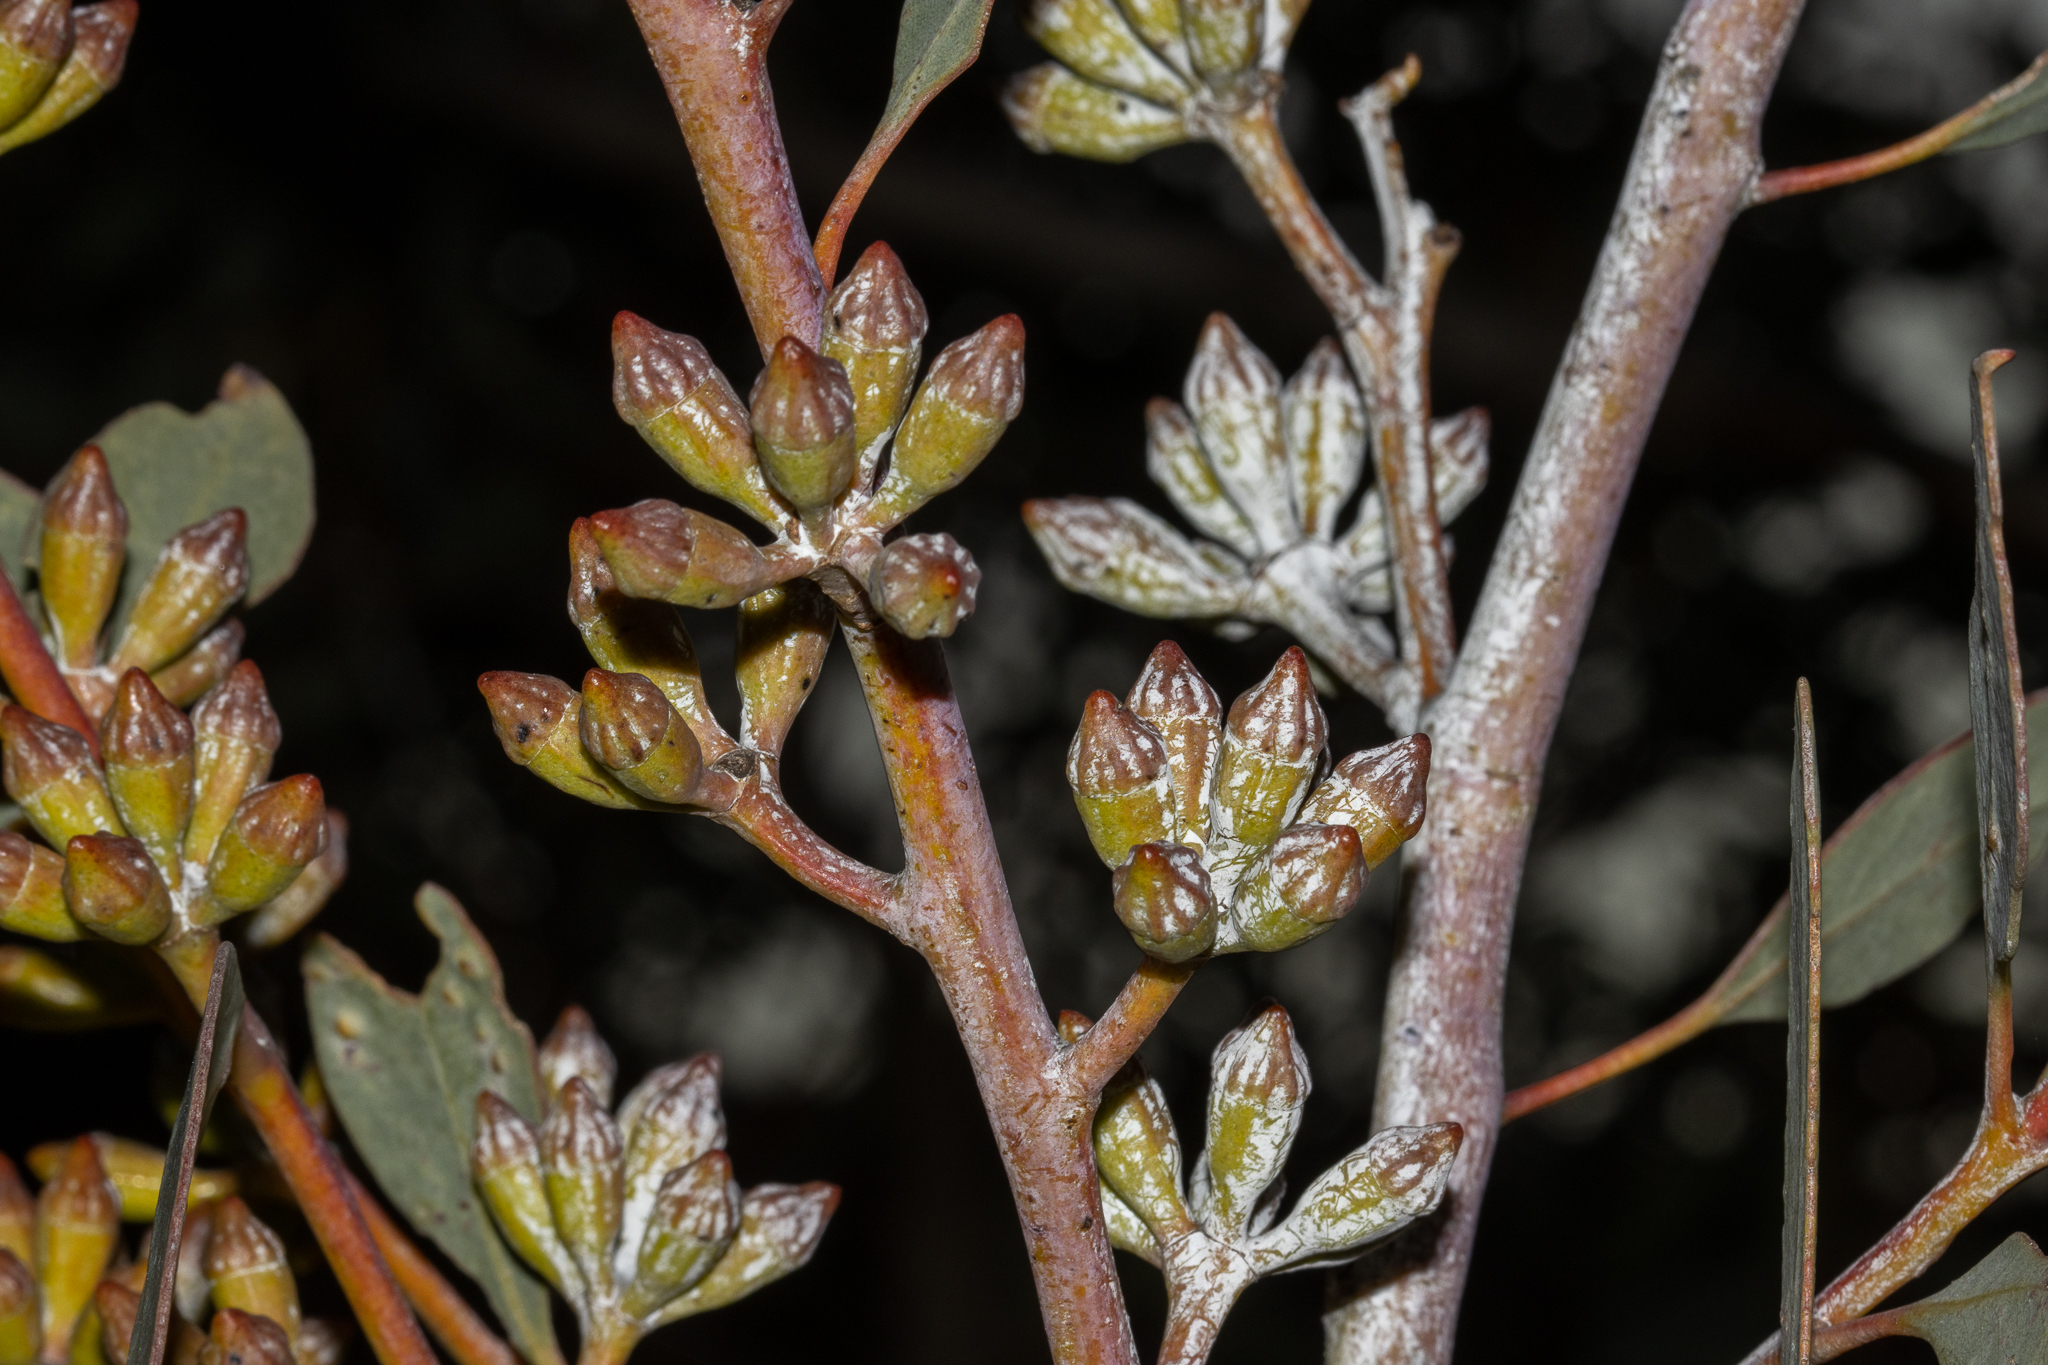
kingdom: Plantae
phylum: Tracheophyta
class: Magnoliopsida
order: Myrtales
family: Myrtaceae
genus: Eucalyptus
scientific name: Eucalyptus cretata
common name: Darke peak mallee
